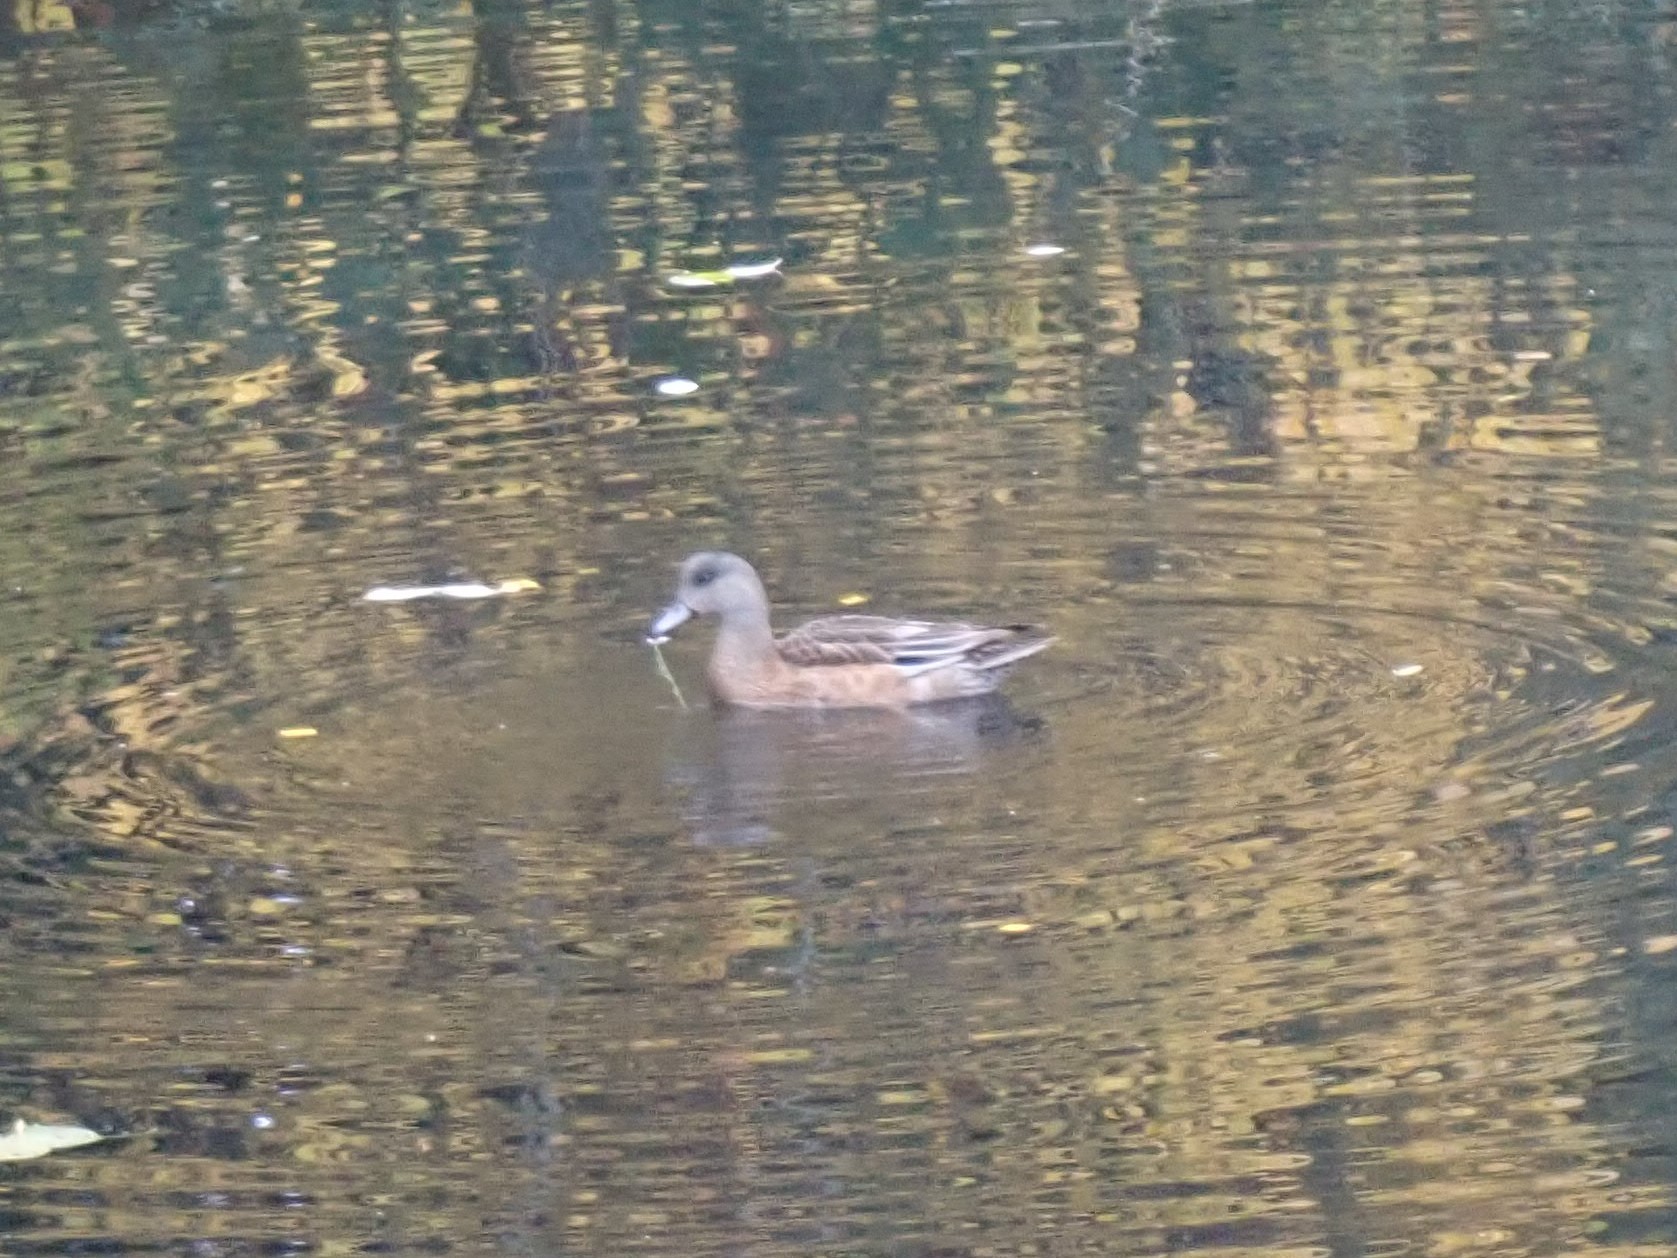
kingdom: Animalia
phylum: Chordata
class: Aves
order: Anseriformes
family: Anatidae
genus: Mareca
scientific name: Mareca americana
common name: American wigeon
